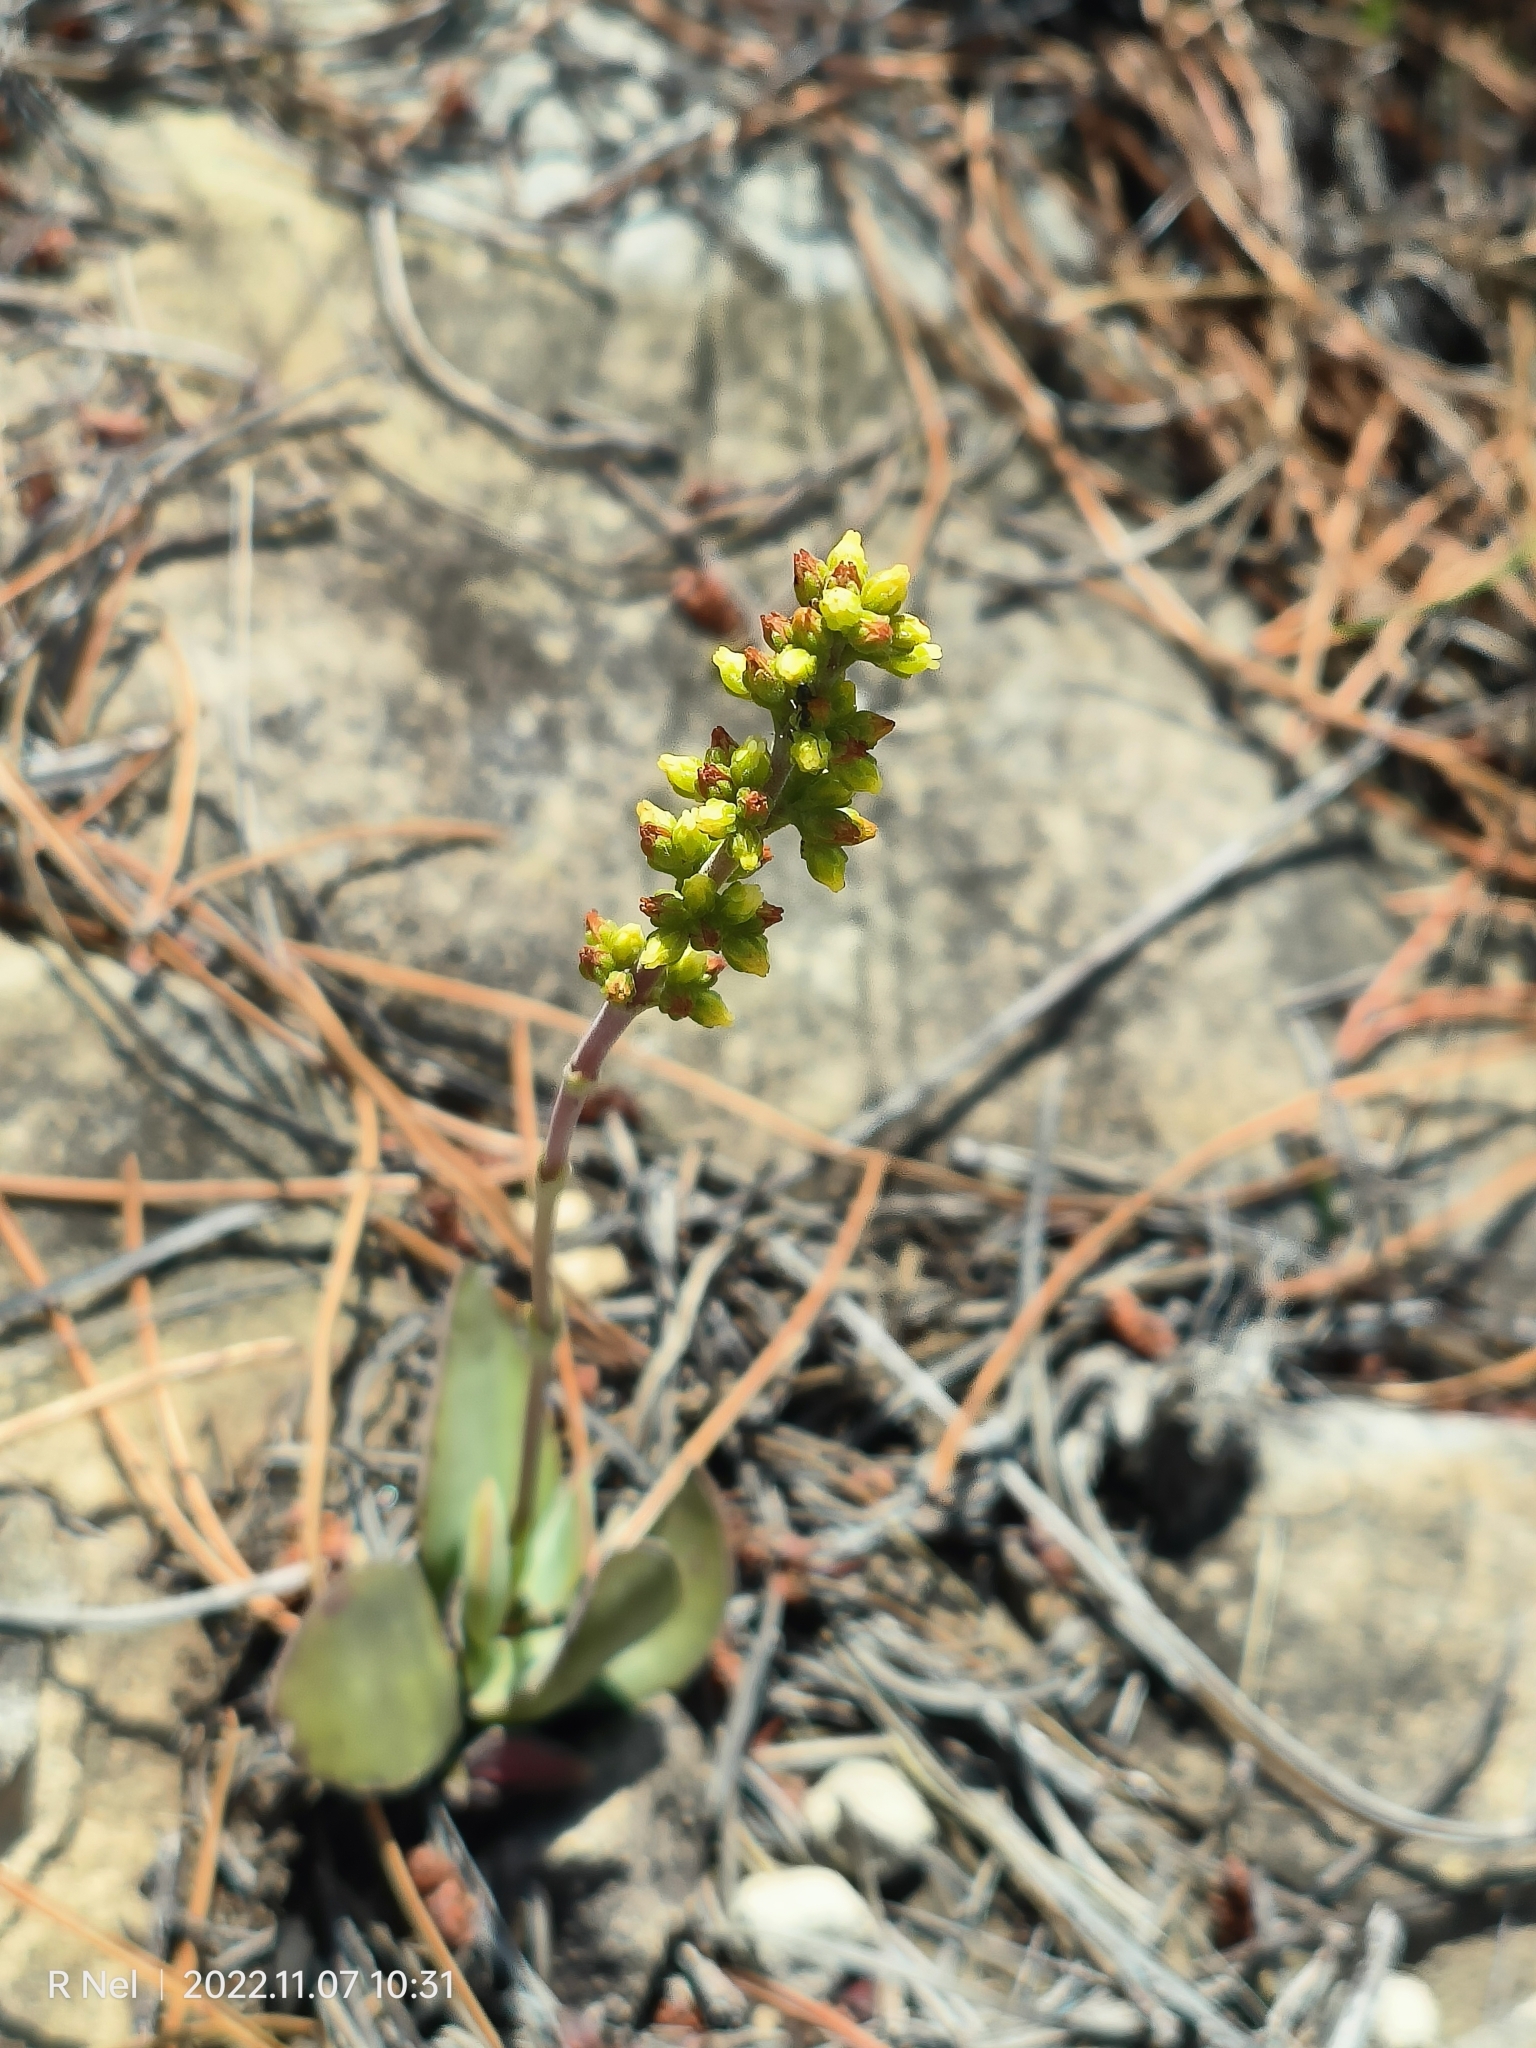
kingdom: Plantae
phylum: Tracheophyta
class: Magnoliopsida
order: Saxifragales
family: Crassulaceae
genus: Crassula
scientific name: Crassula nudicaulis
